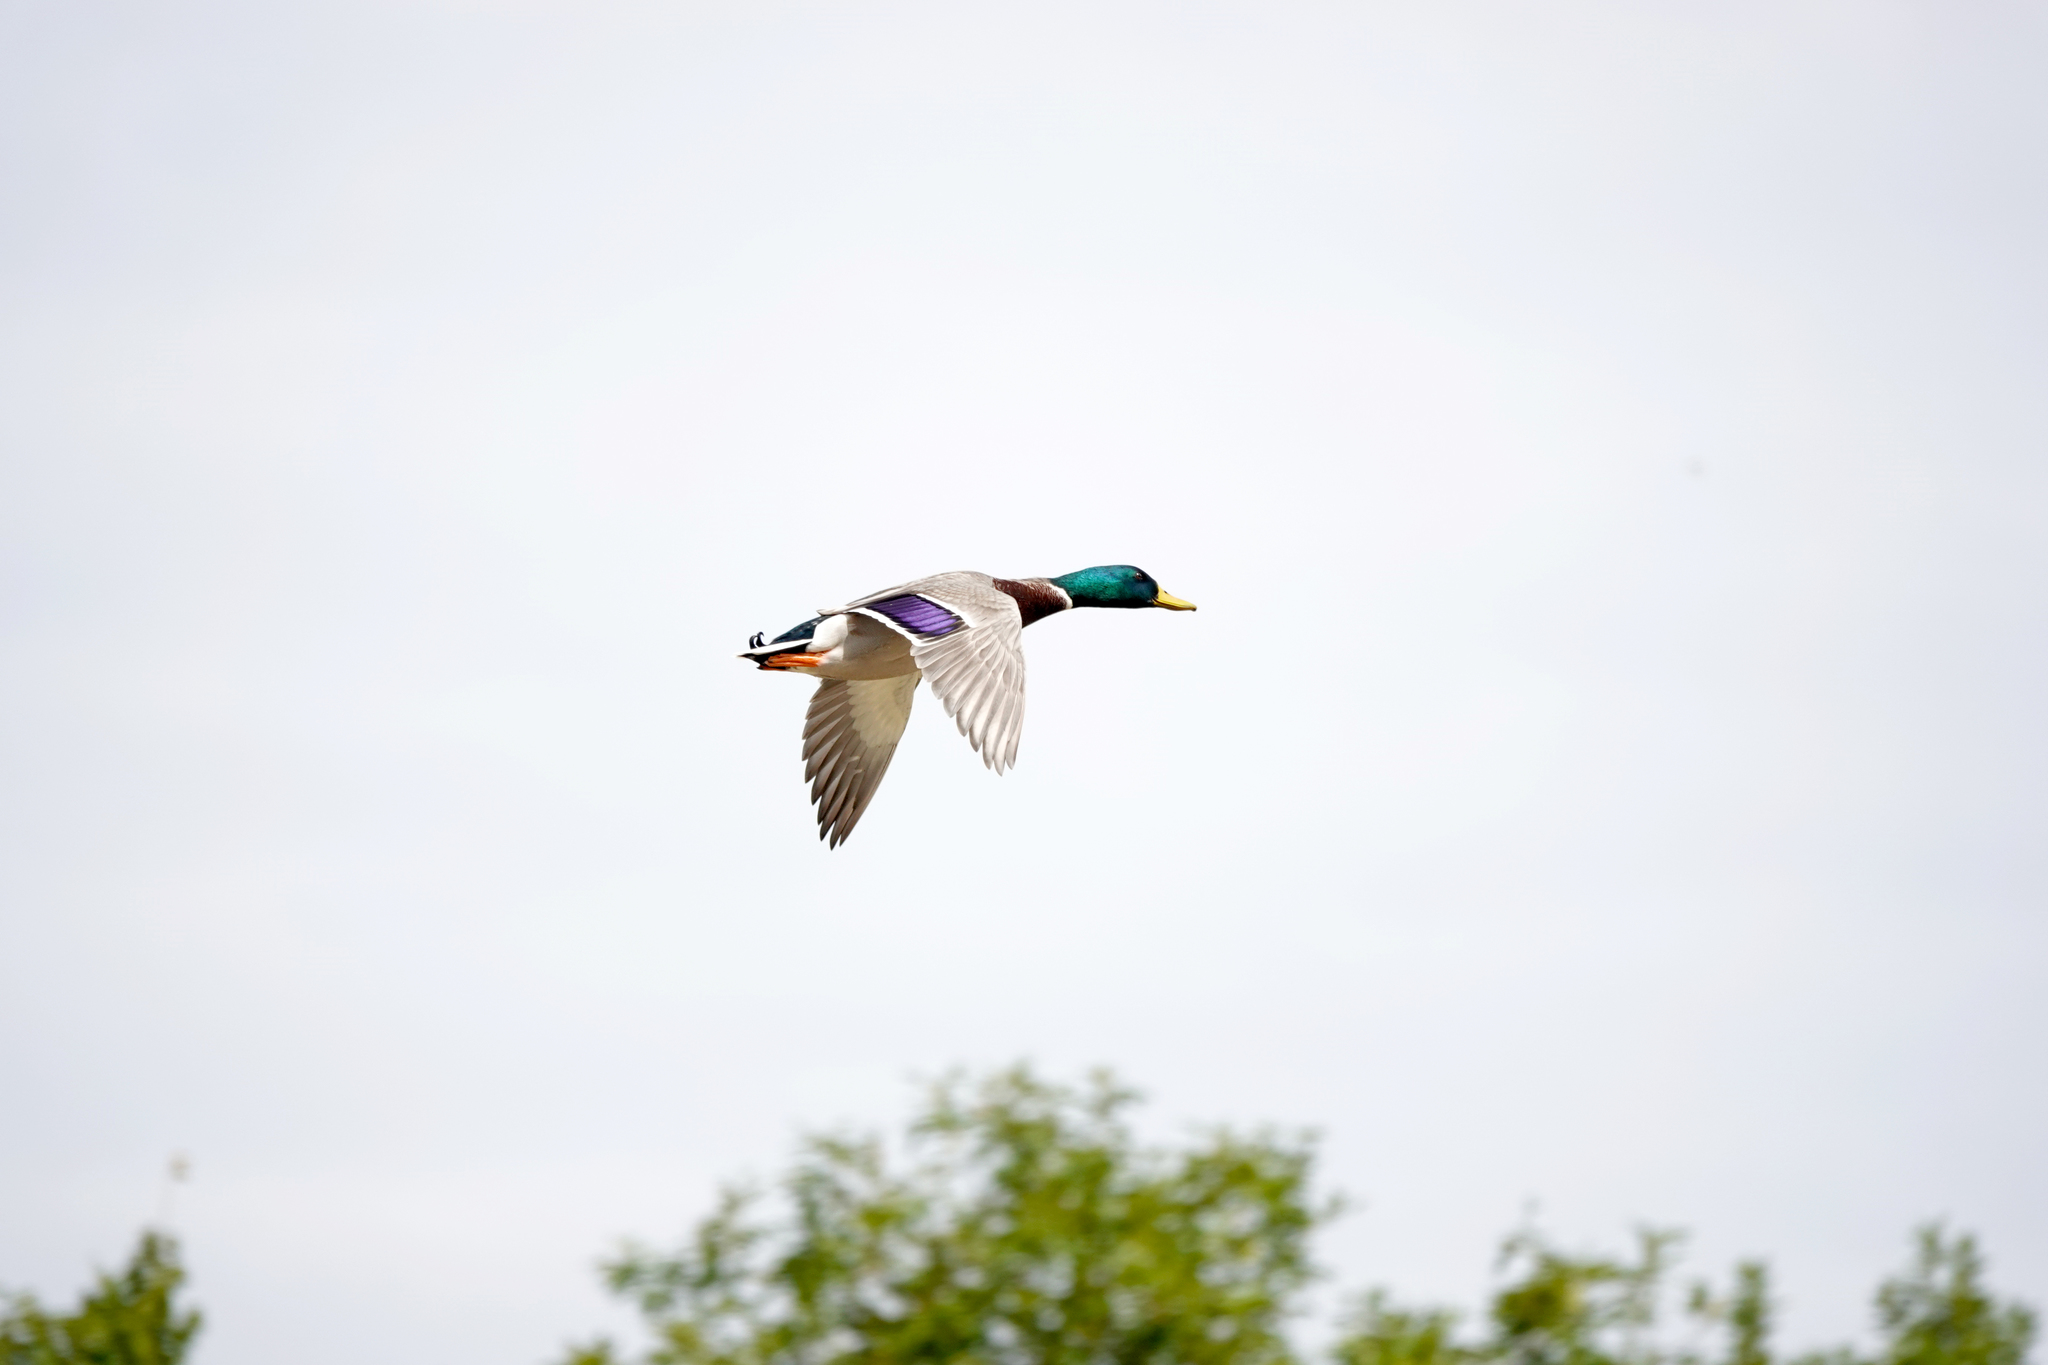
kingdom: Animalia
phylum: Chordata
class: Aves
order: Anseriformes
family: Anatidae
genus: Anas
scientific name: Anas platyrhynchos
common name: Mallard
